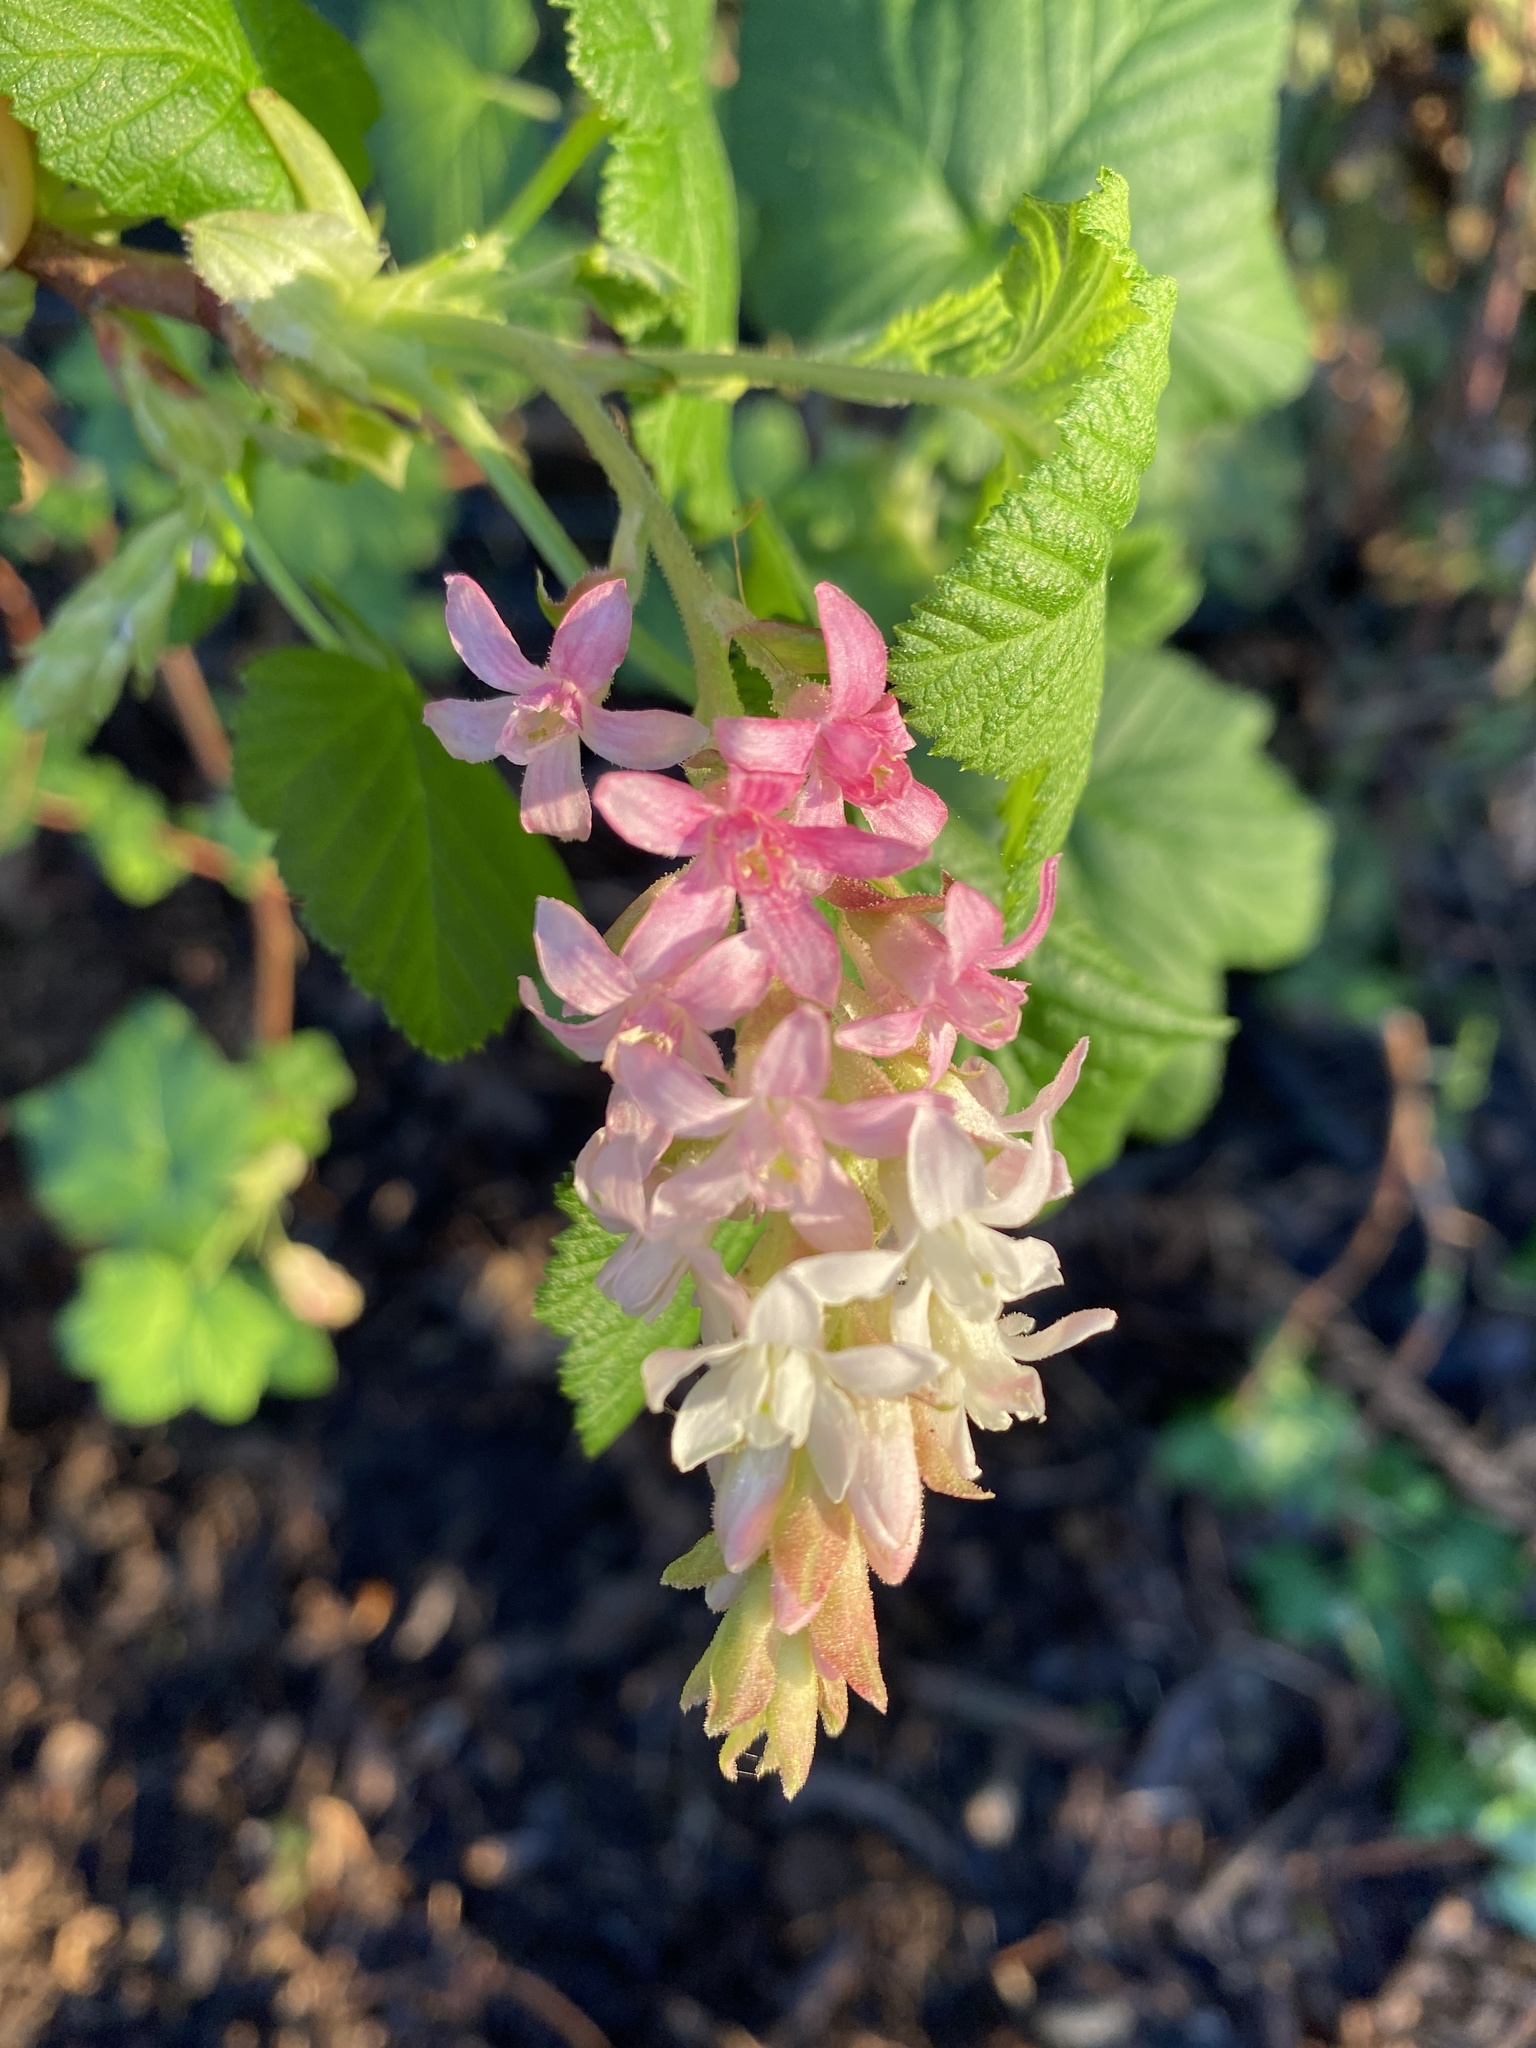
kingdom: Plantae
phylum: Tracheophyta
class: Magnoliopsida
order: Saxifragales
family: Grossulariaceae
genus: Ribes
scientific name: Ribes sanguineum
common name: Flowering currant
